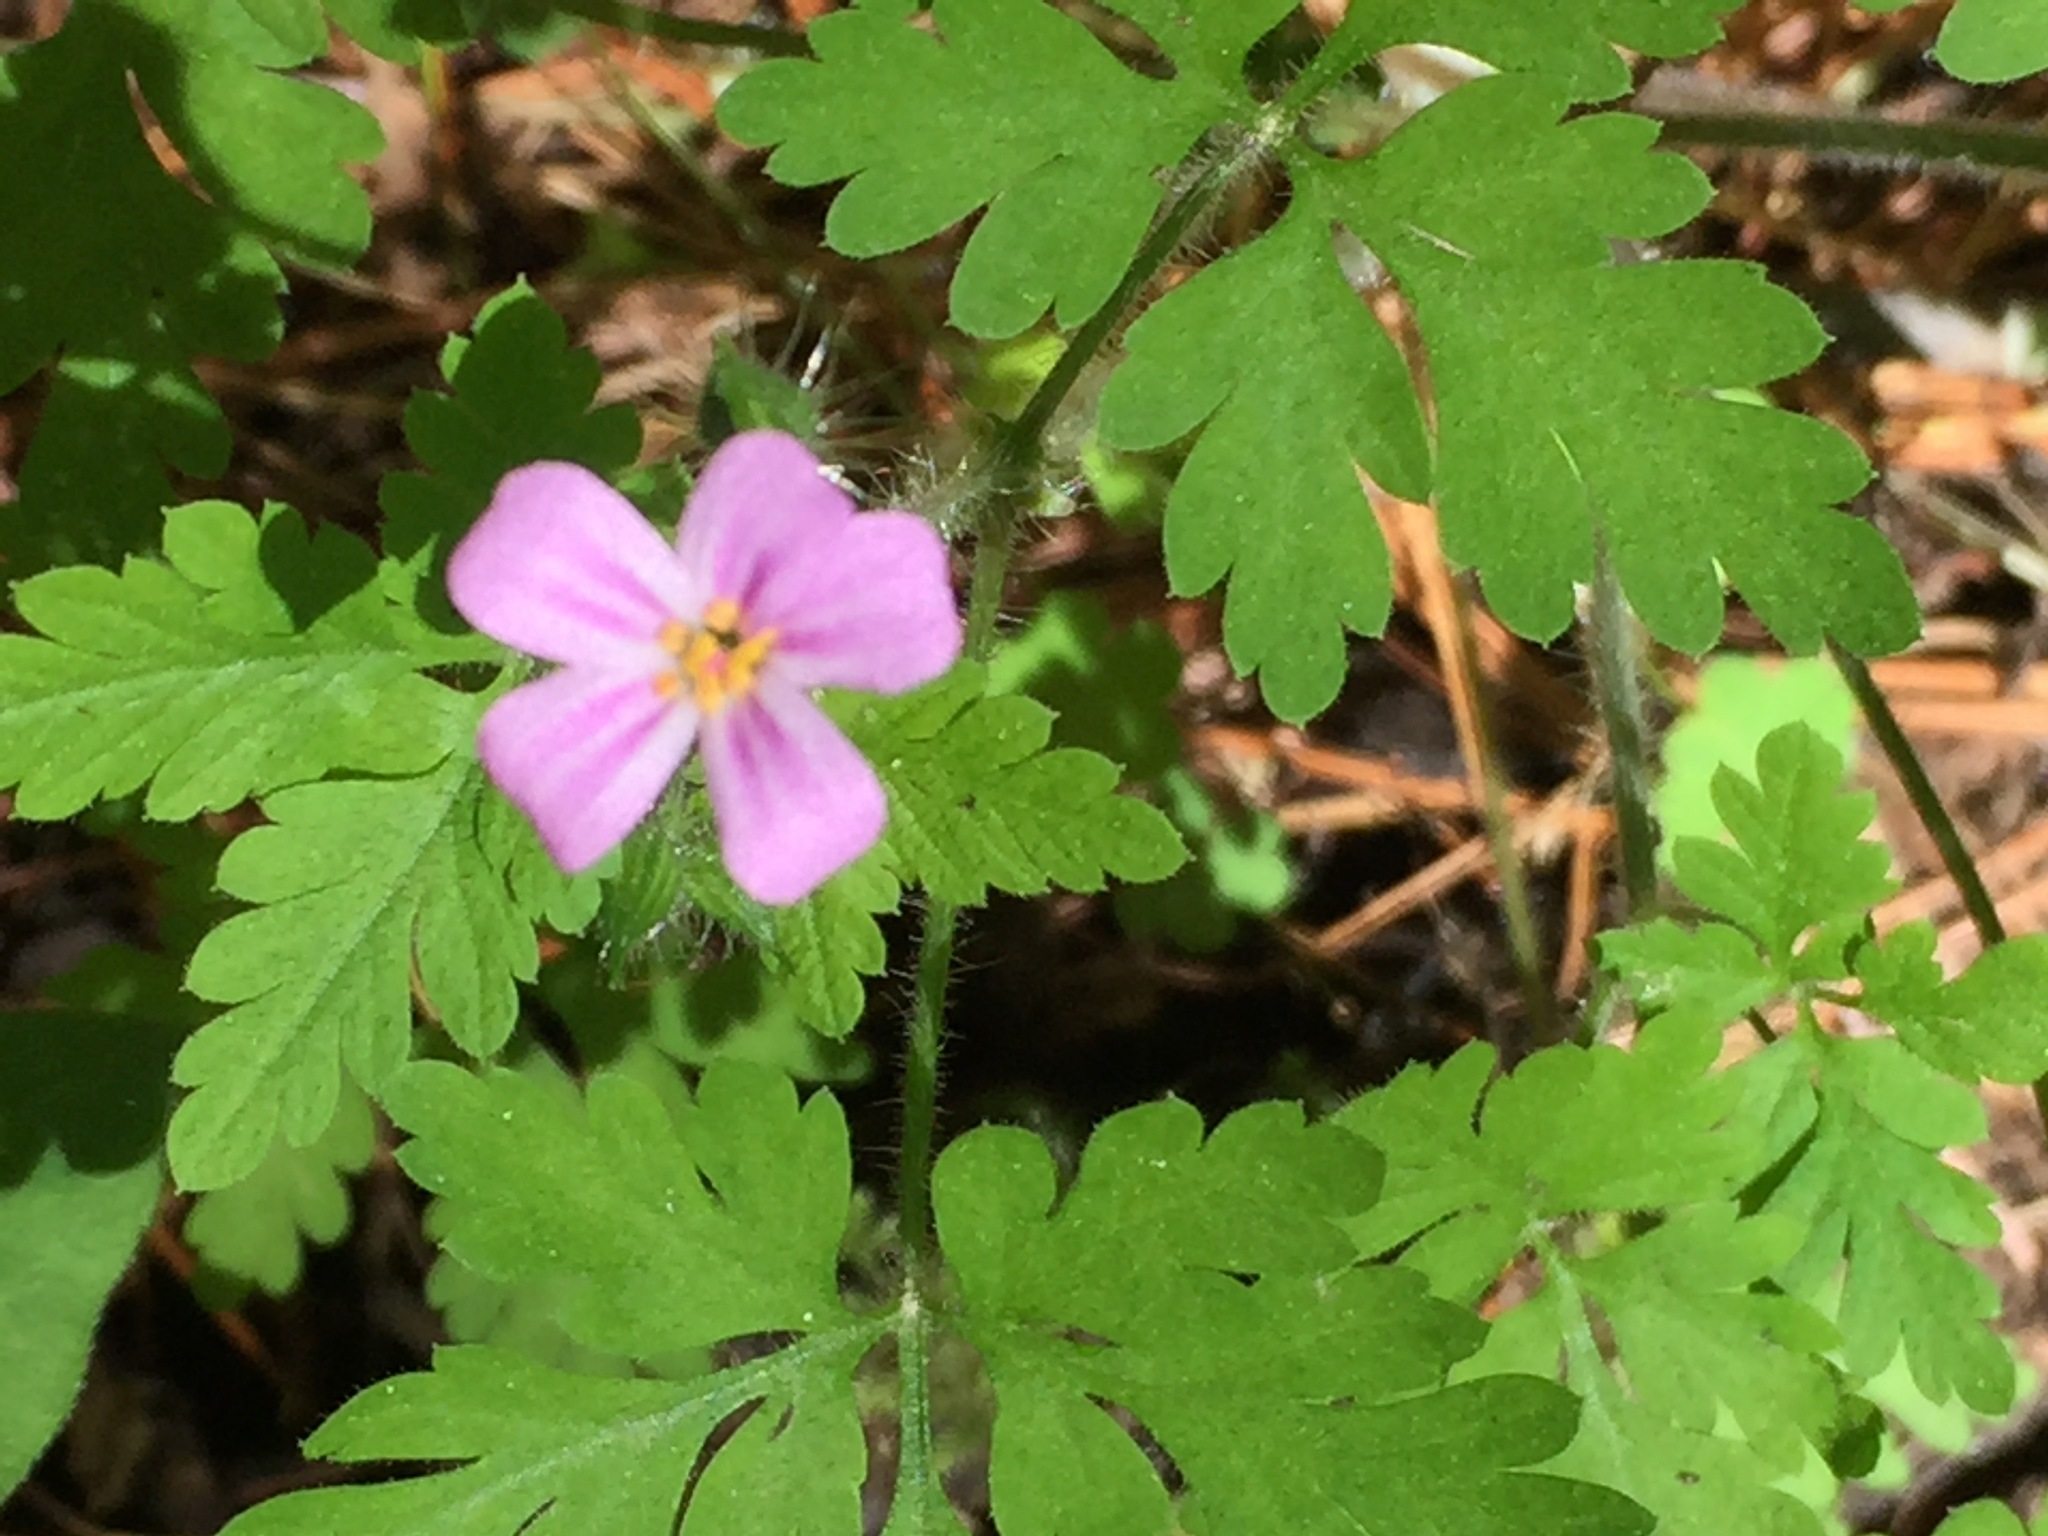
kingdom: Plantae
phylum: Tracheophyta
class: Magnoliopsida
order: Geraniales
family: Geraniaceae
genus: Geranium
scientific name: Geranium robertianum
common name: Herb-robert
